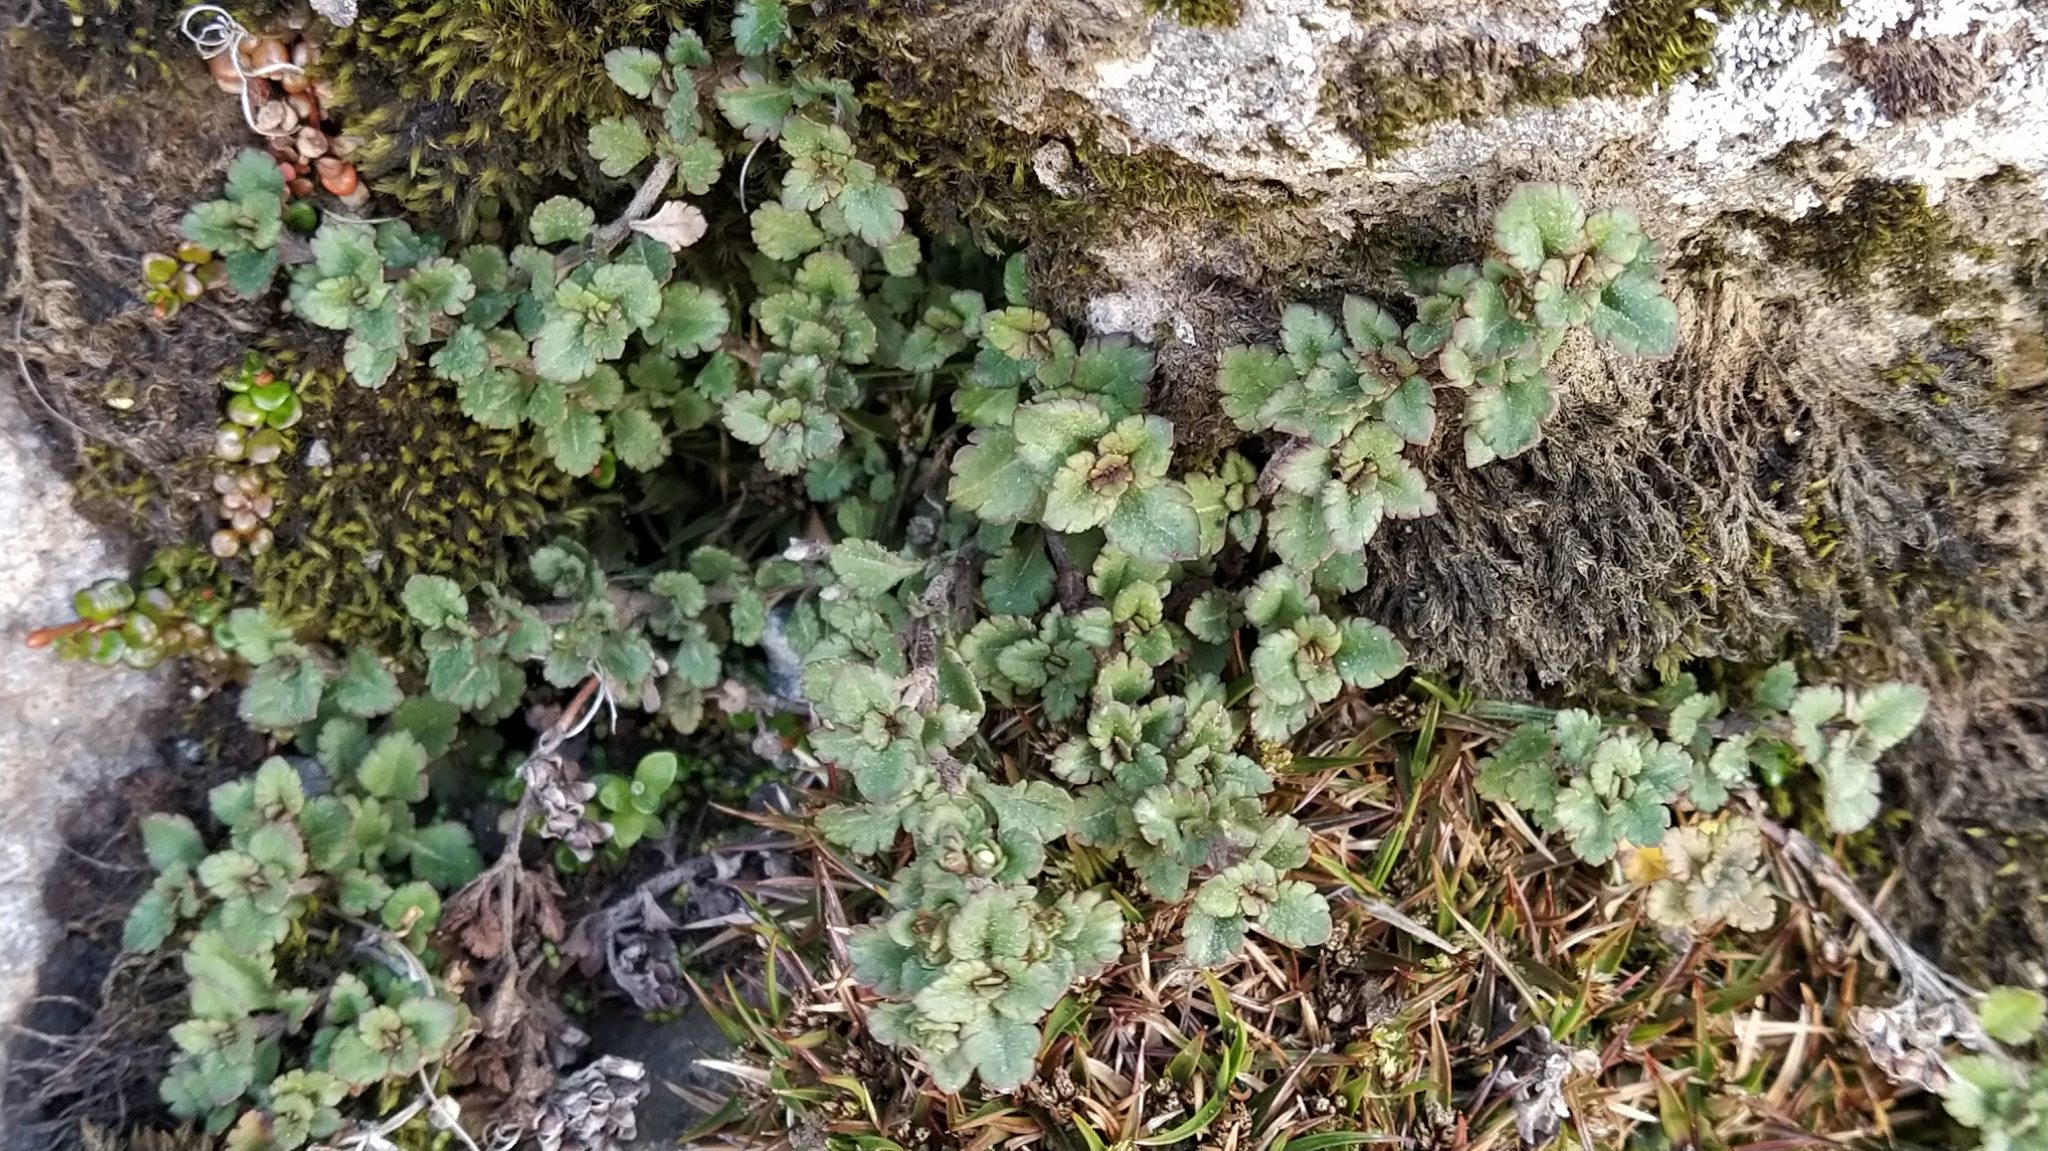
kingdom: Plantae
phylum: Tracheophyta
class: Magnoliopsida
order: Lamiales
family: Plantaginaceae
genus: Veronica
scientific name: Veronica spathulata
